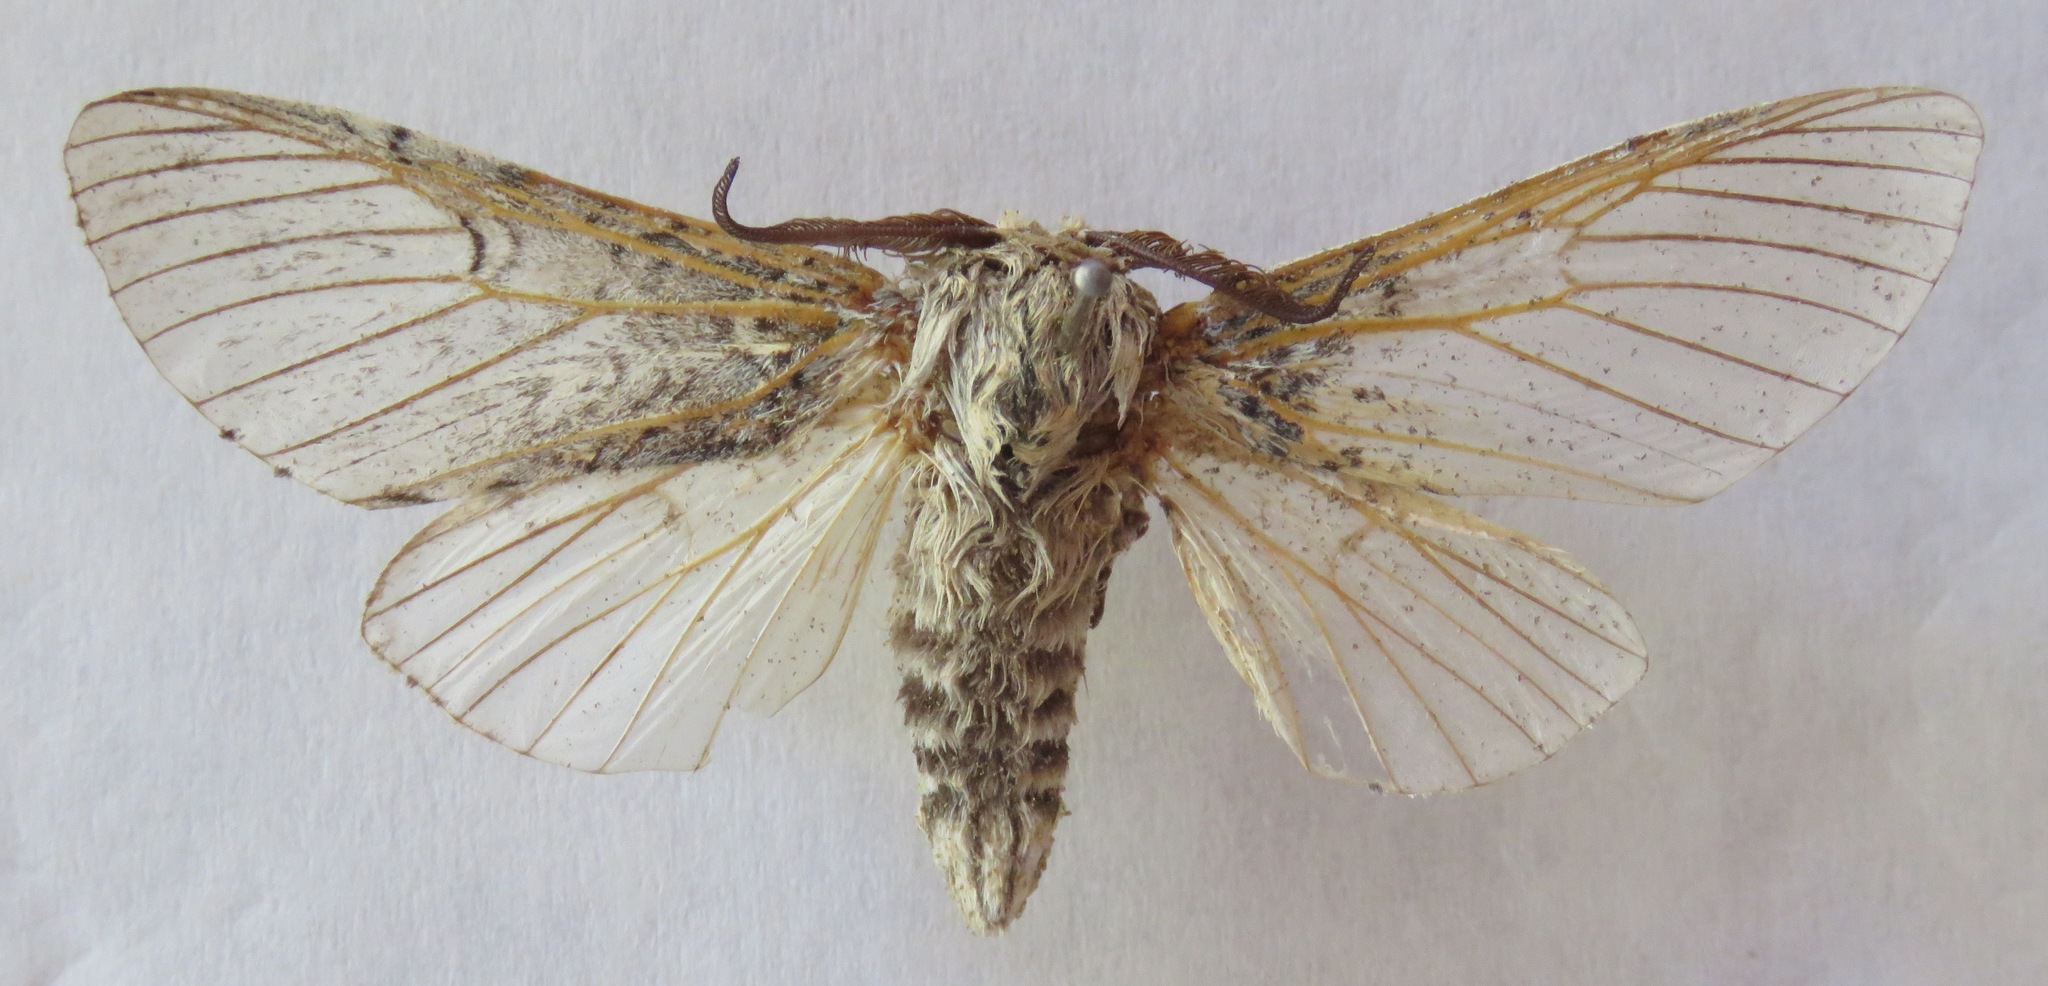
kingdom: Animalia
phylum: Arthropoda
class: Insecta
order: Lepidoptera
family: Notodontidae
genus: Cerura
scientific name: Cerura iberica
